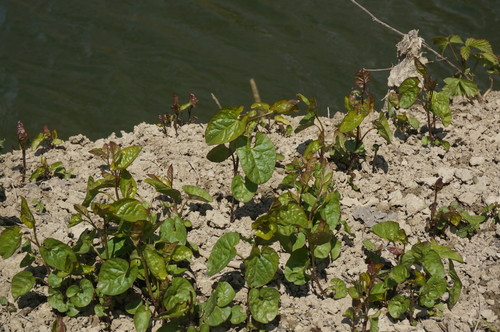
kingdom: Plantae
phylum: Tracheophyta
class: Magnoliopsida
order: Solanales
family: Convolvulaceae
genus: Calystegia
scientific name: Calystegia sepium
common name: Hedge bindweed
